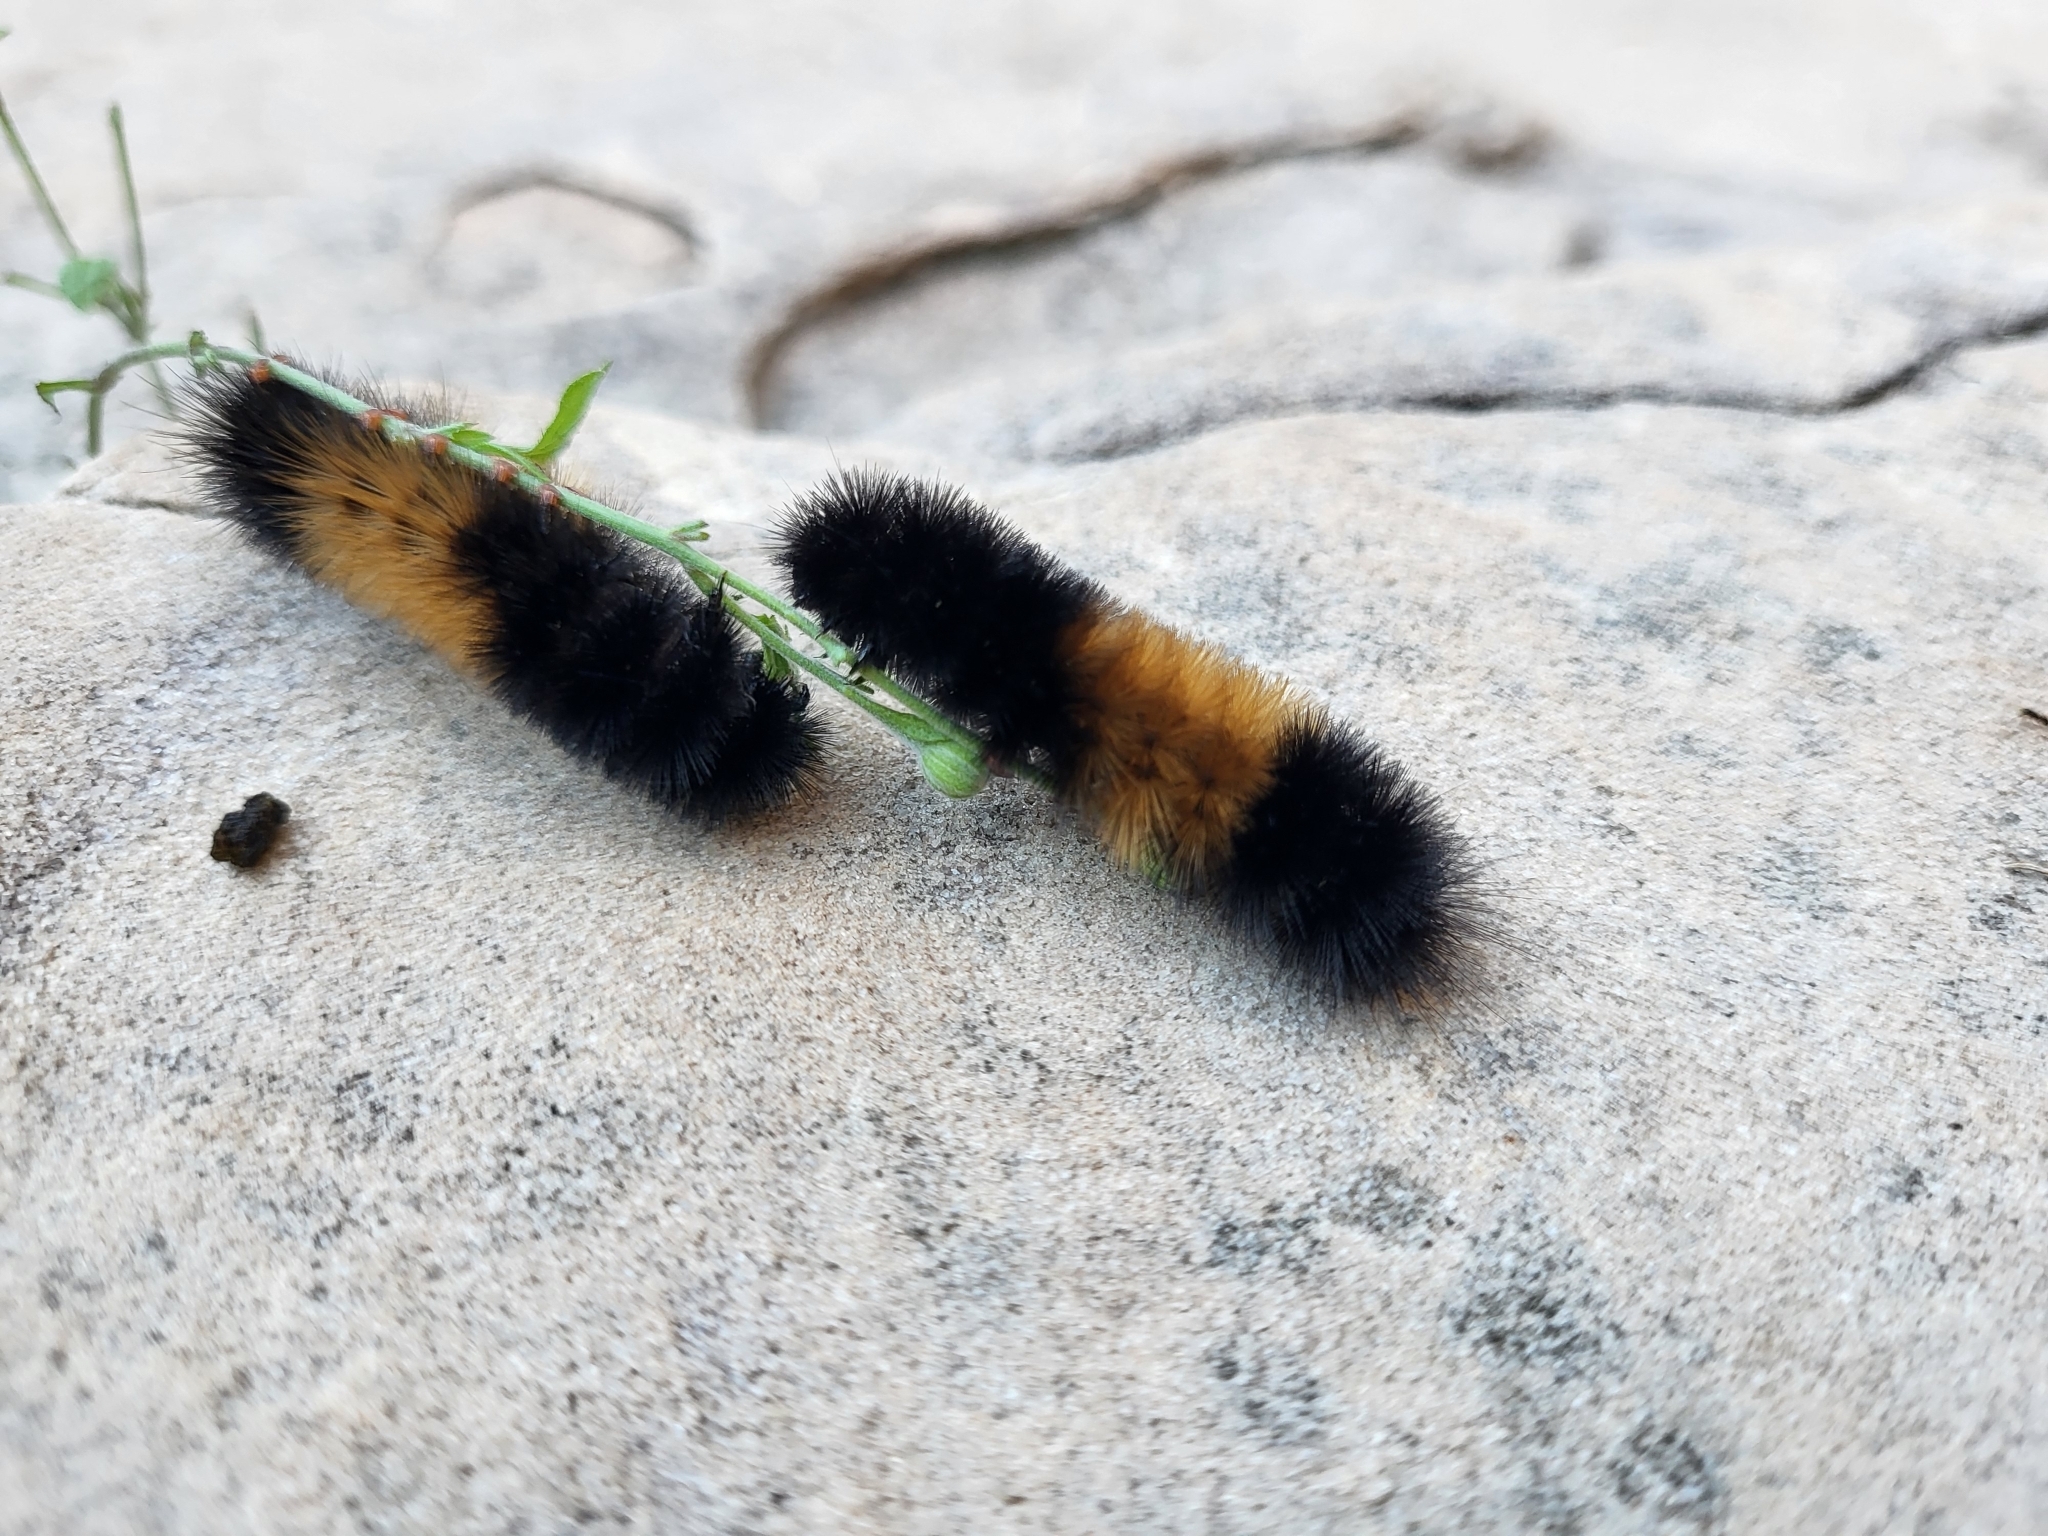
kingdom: Animalia
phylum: Arthropoda
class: Insecta
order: Lepidoptera
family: Erebidae
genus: Pyrrharctia
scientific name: Pyrrharctia isabella
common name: Isabella tiger moth
